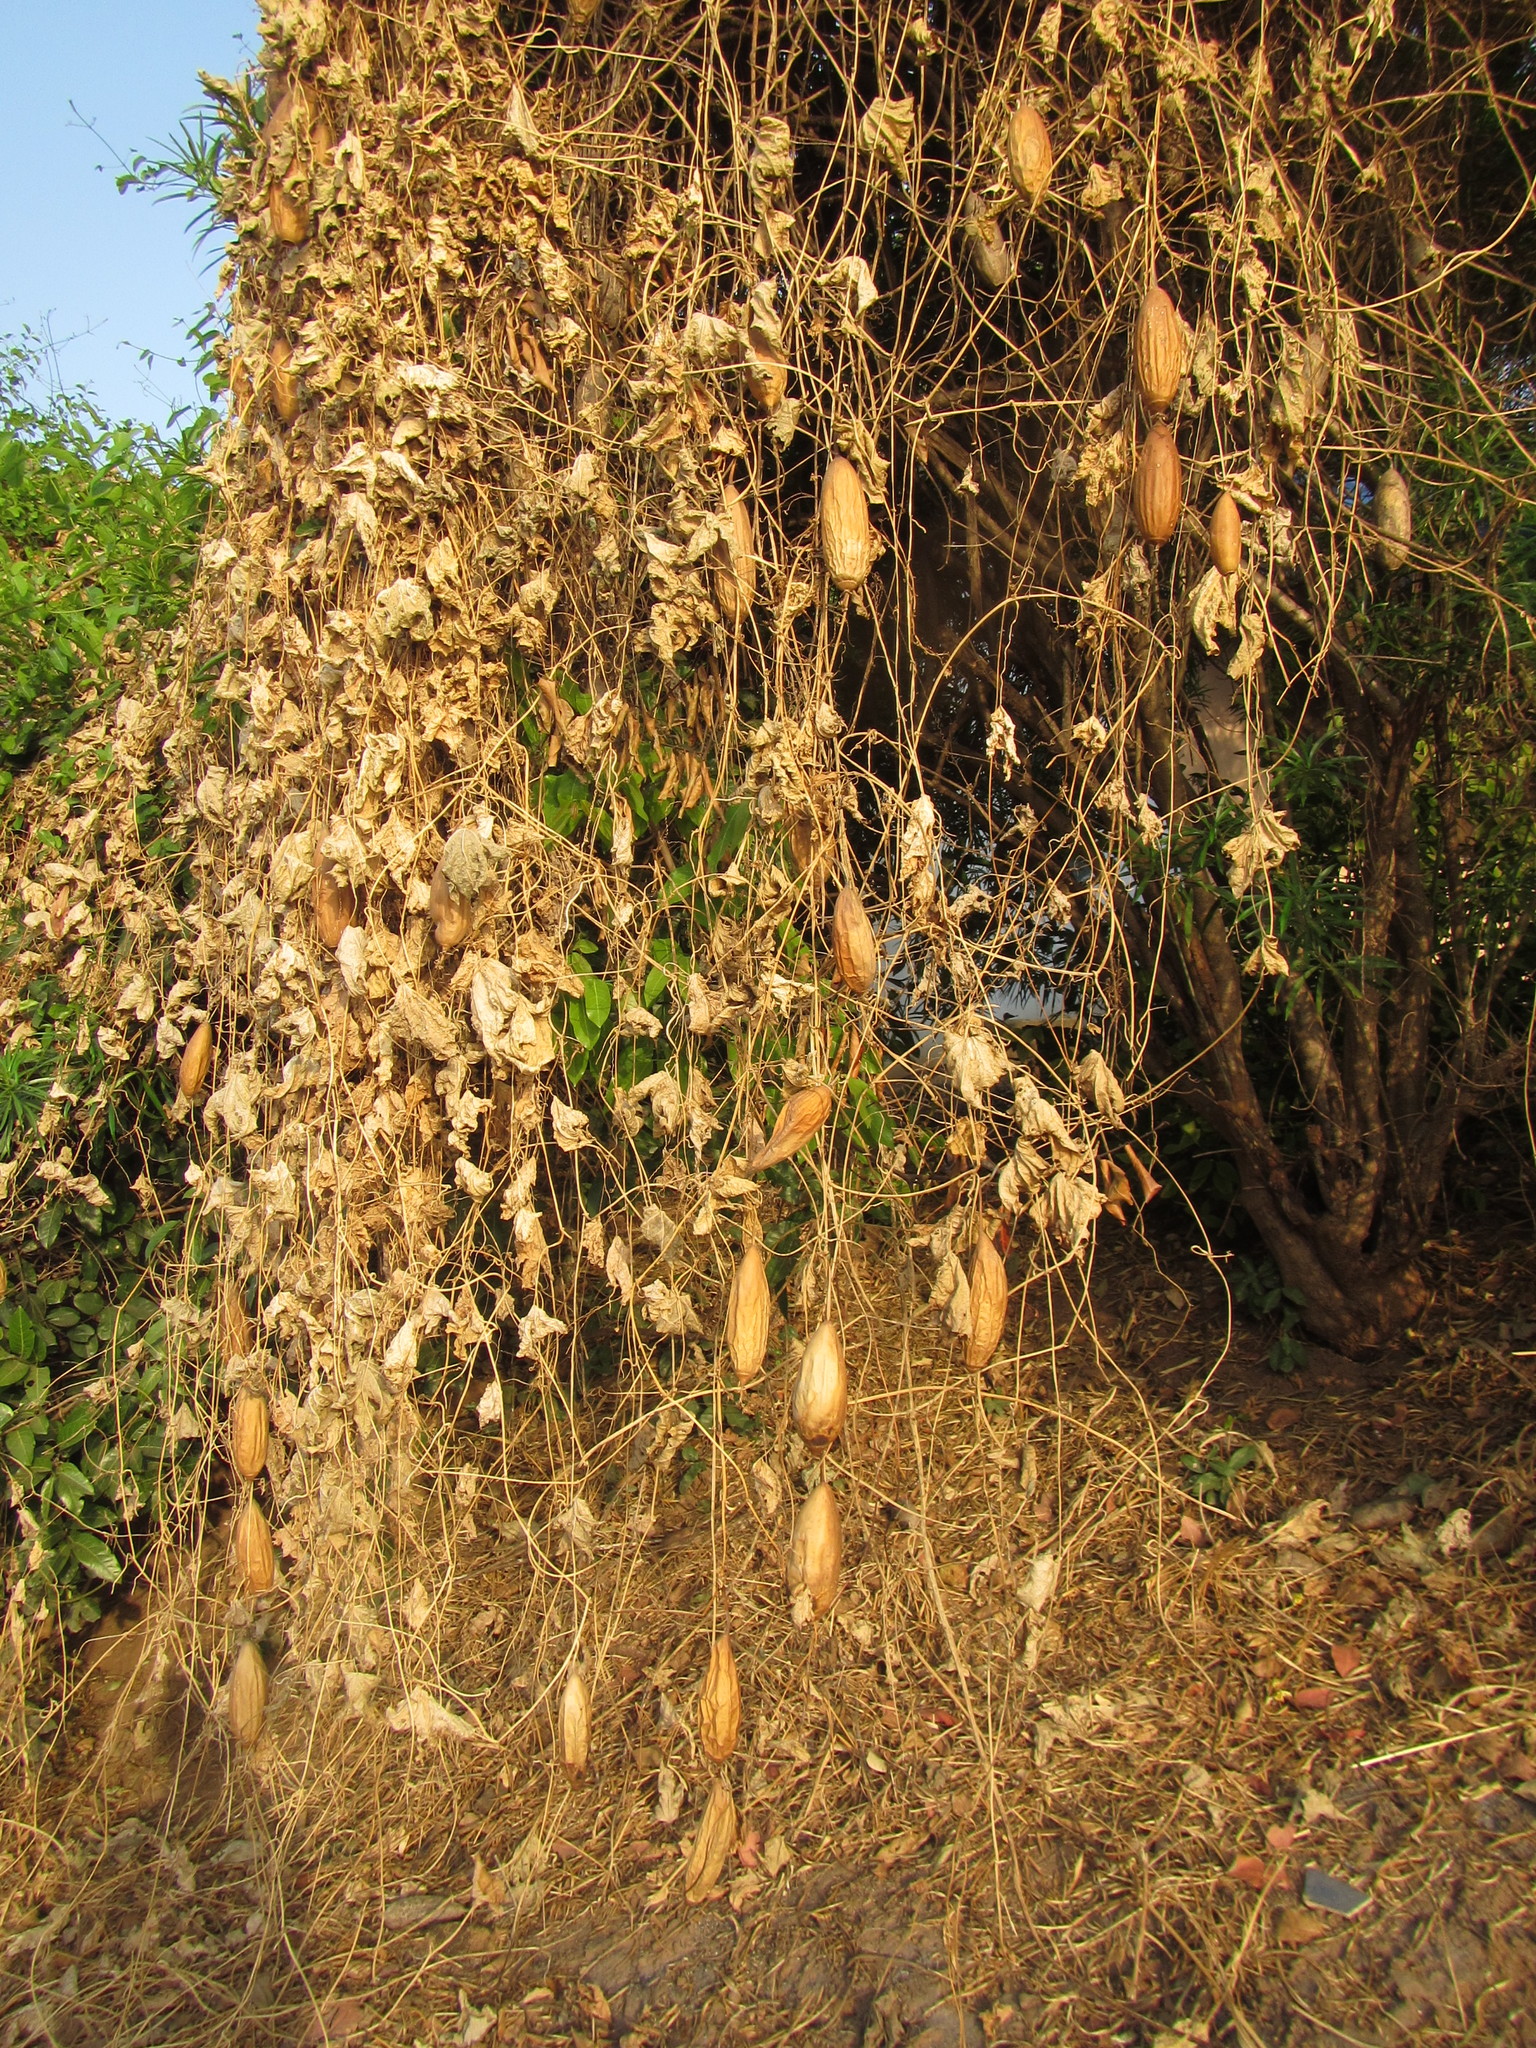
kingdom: Plantae
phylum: Tracheophyta
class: Magnoliopsida
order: Cucurbitales
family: Cucurbitaceae
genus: Luffa
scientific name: Luffa aegyptiaca
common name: Sponge gourd
